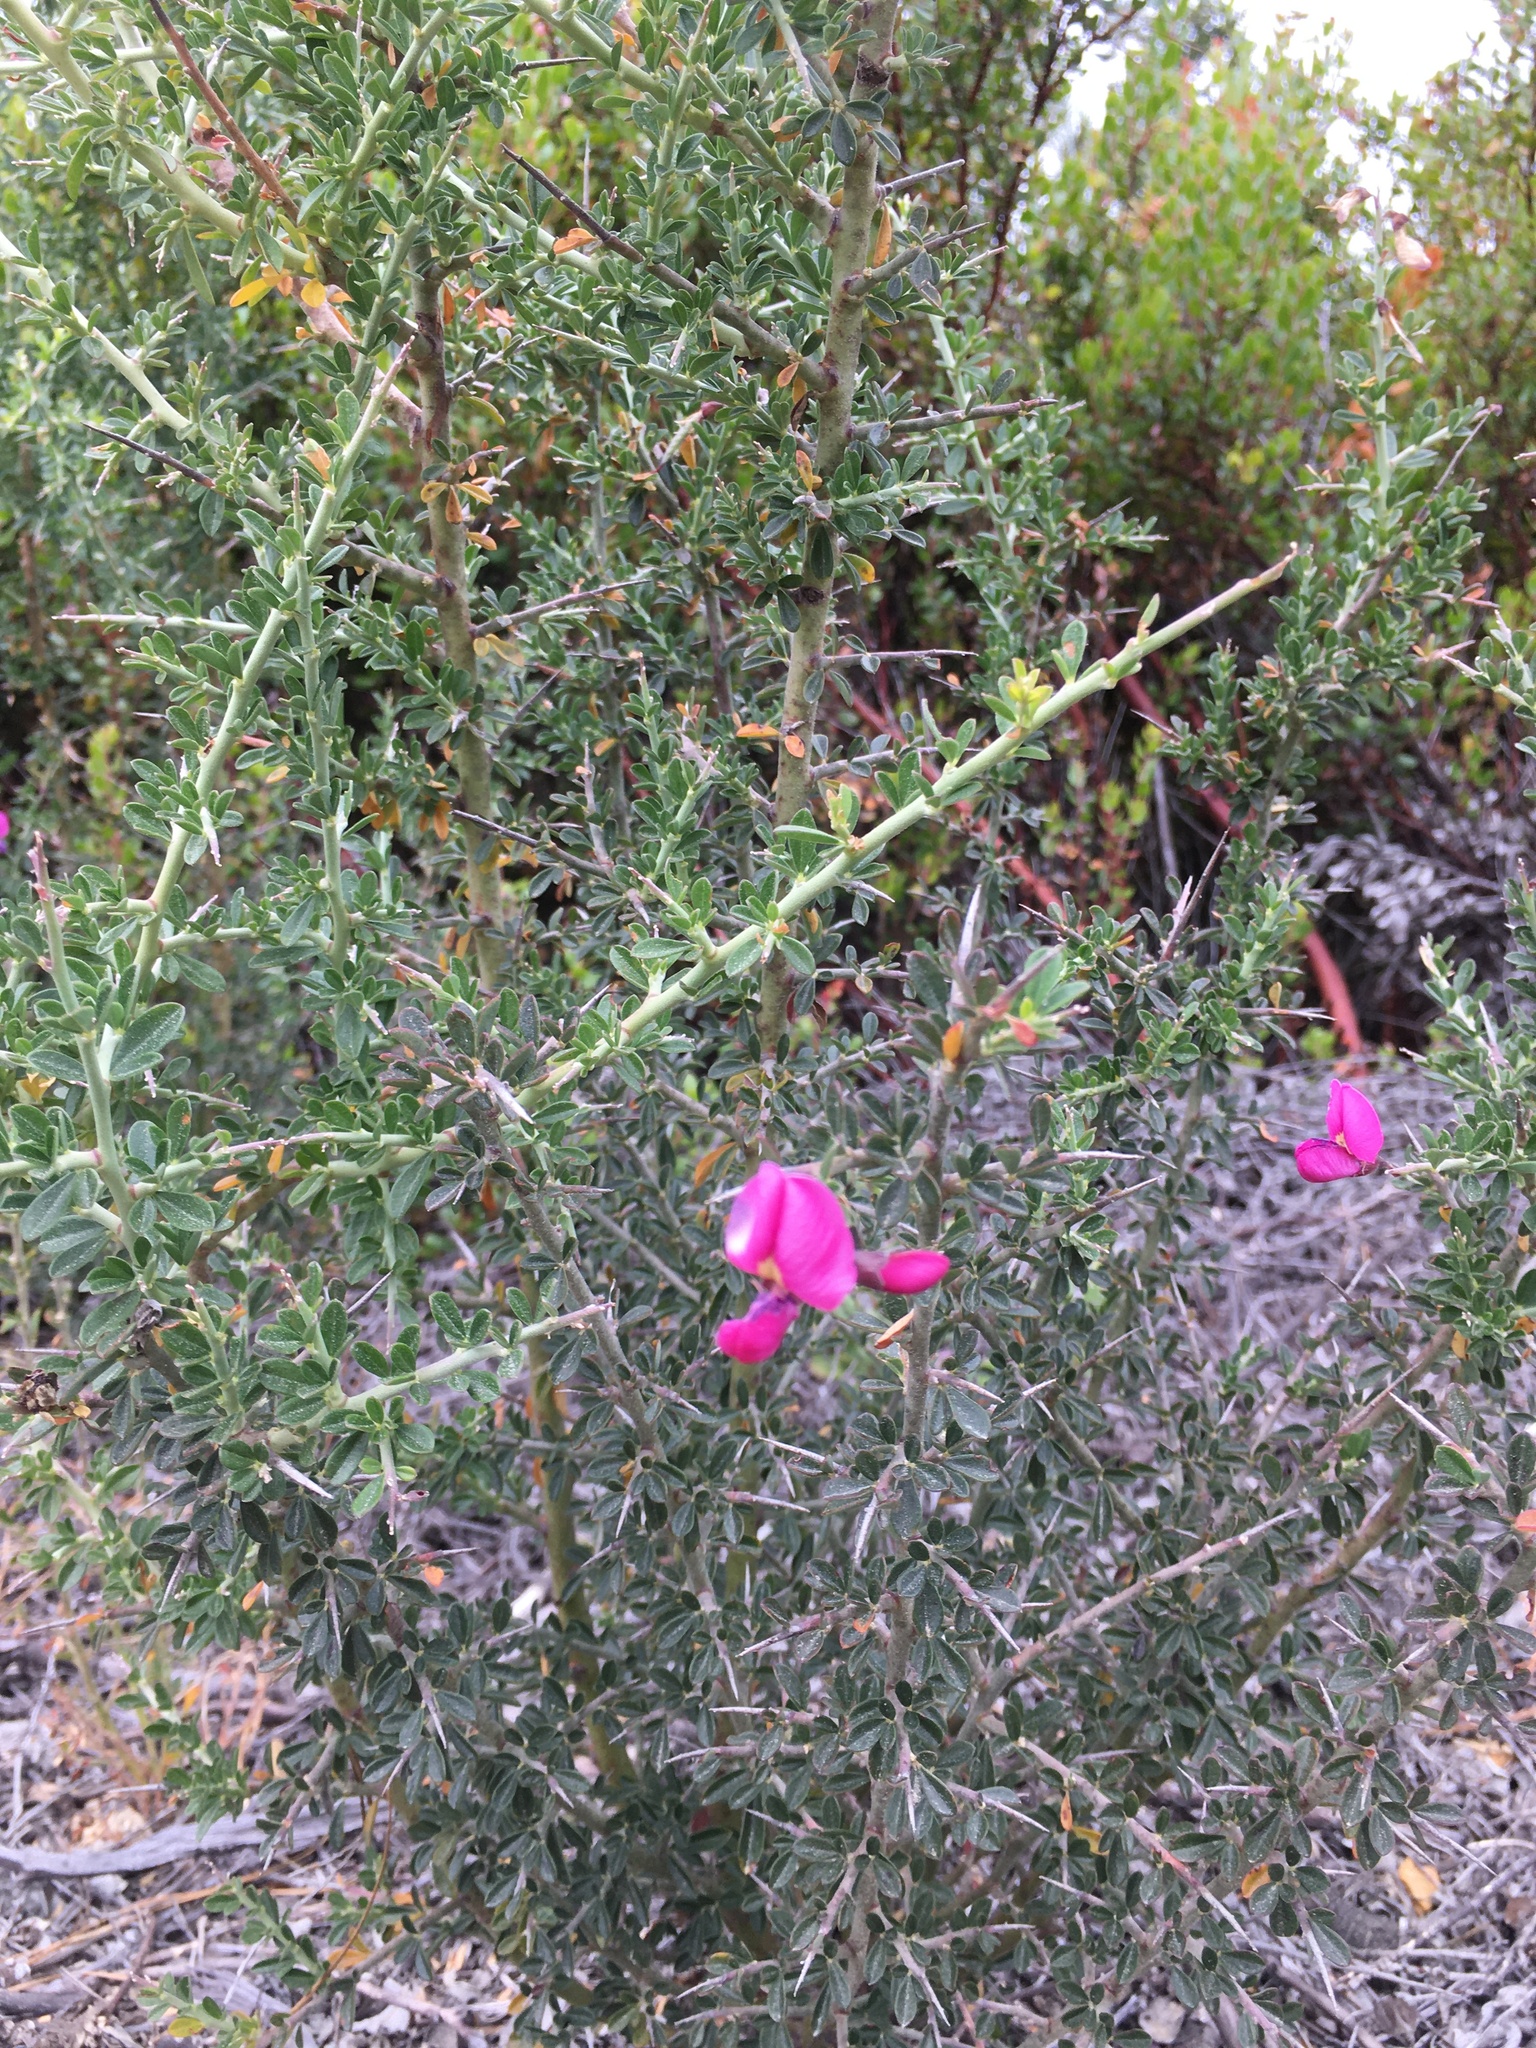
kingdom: Plantae
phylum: Tracheophyta
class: Magnoliopsida
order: Fabales
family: Fabaceae
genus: Pickeringia
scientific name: Pickeringia montana
